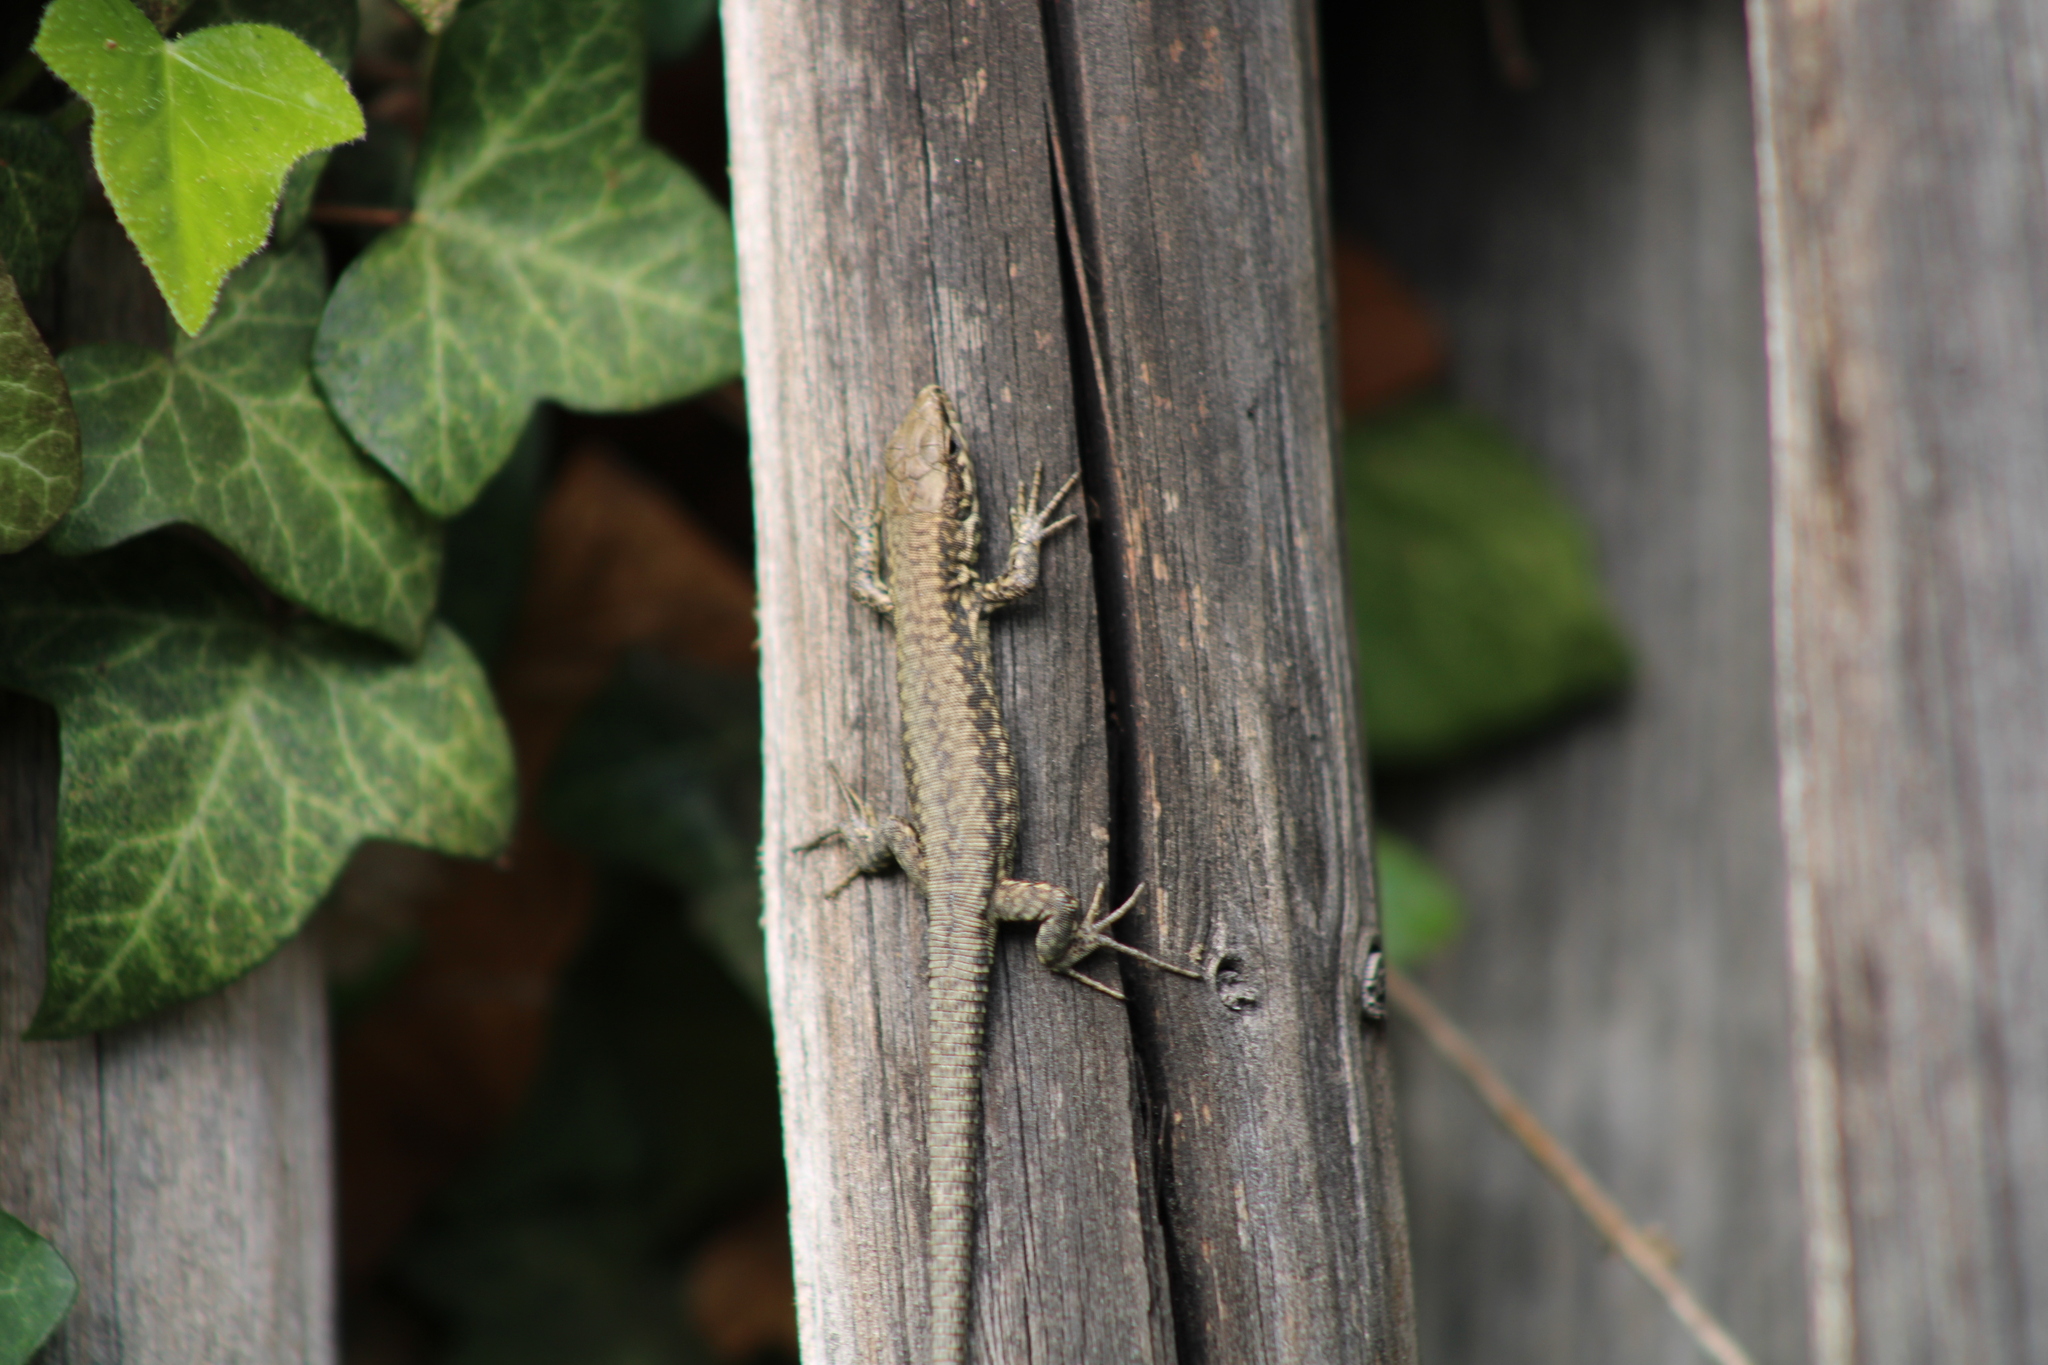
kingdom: Animalia
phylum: Chordata
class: Squamata
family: Lacertidae
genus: Podarcis
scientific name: Podarcis muralis
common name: Common wall lizard
